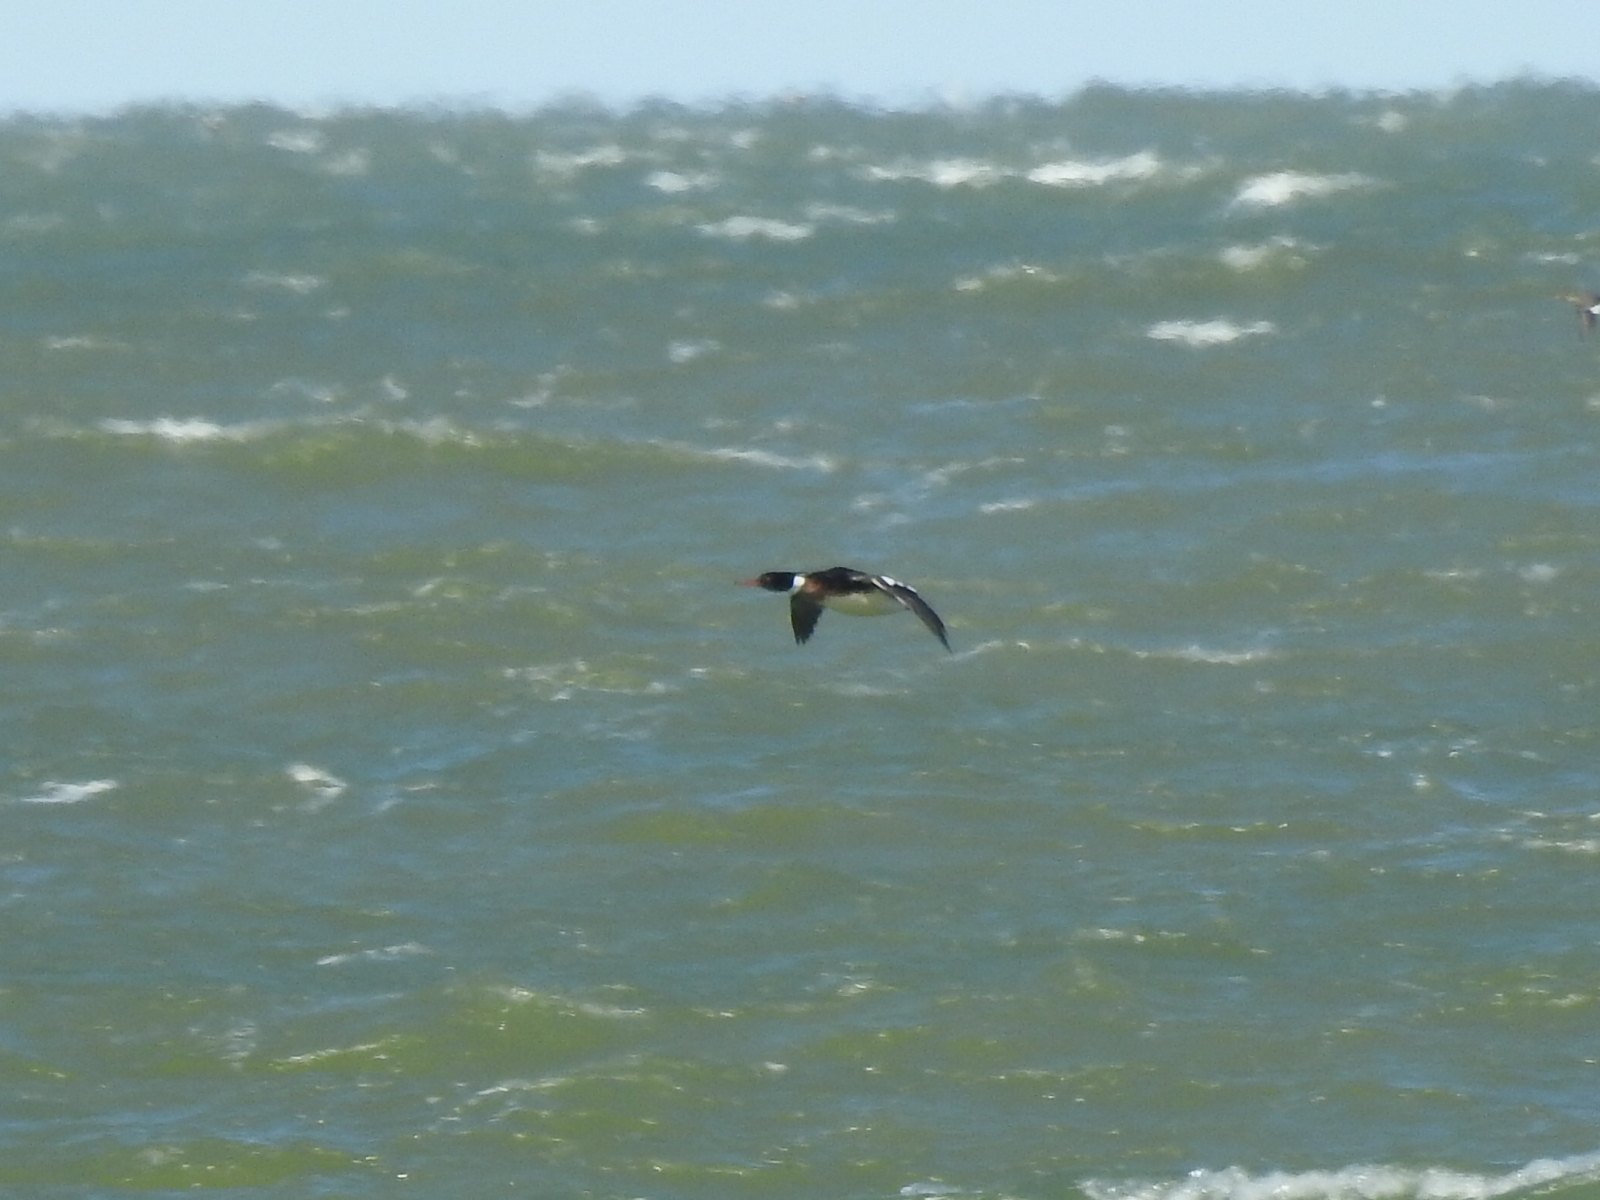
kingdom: Animalia
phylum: Chordata
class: Aves
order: Anseriformes
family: Anatidae
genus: Mergus
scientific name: Mergus serrator
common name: Red-breasted merganser
